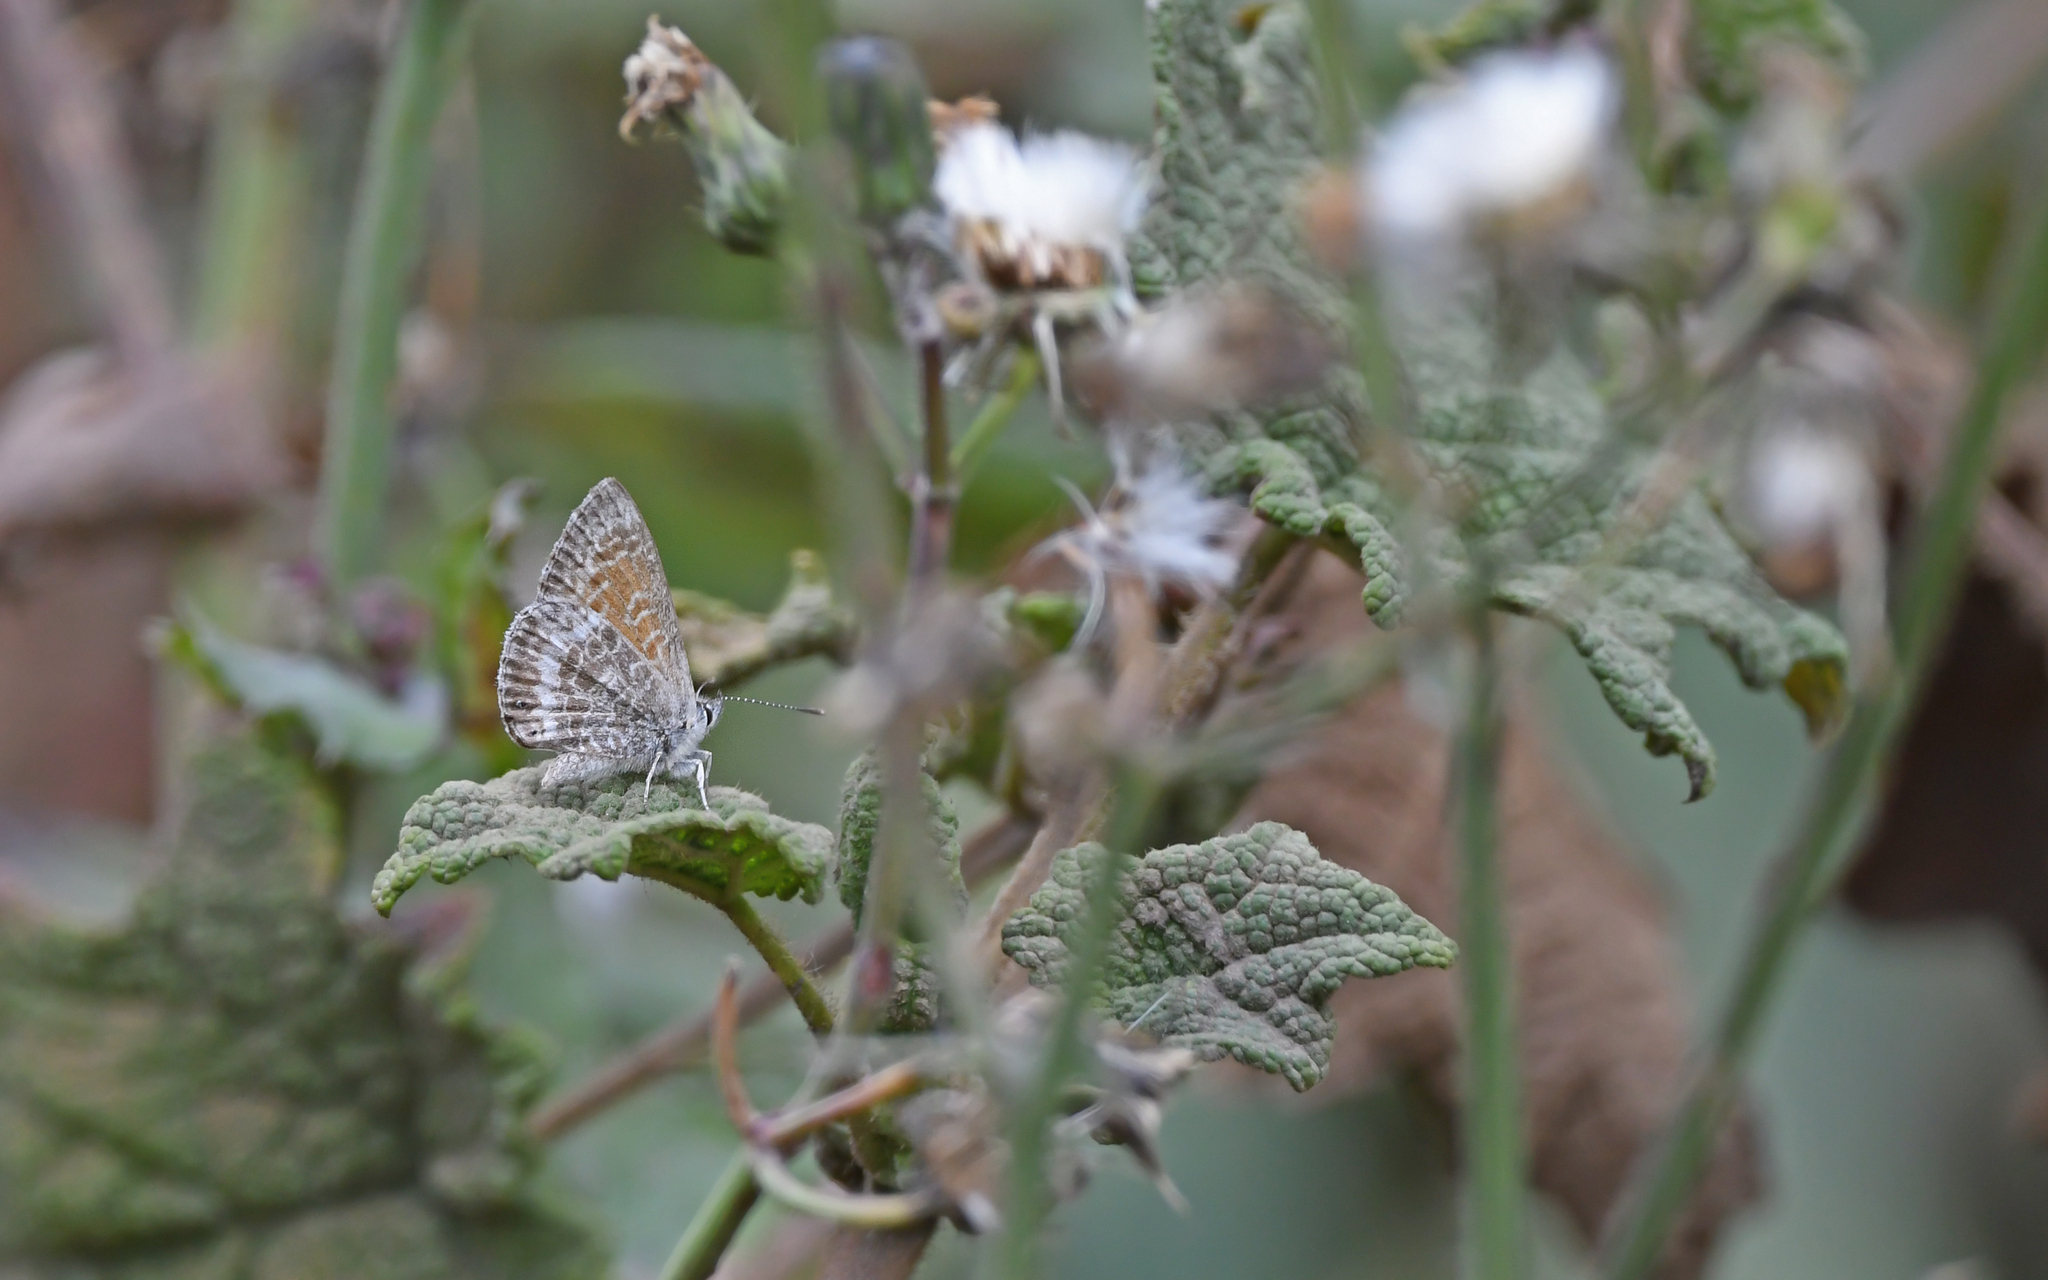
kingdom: Animalia
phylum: Arthropoda
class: Insecta
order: Lepidoptera
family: Lycaenidae
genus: Leptotes
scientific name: Leptotes callanga
